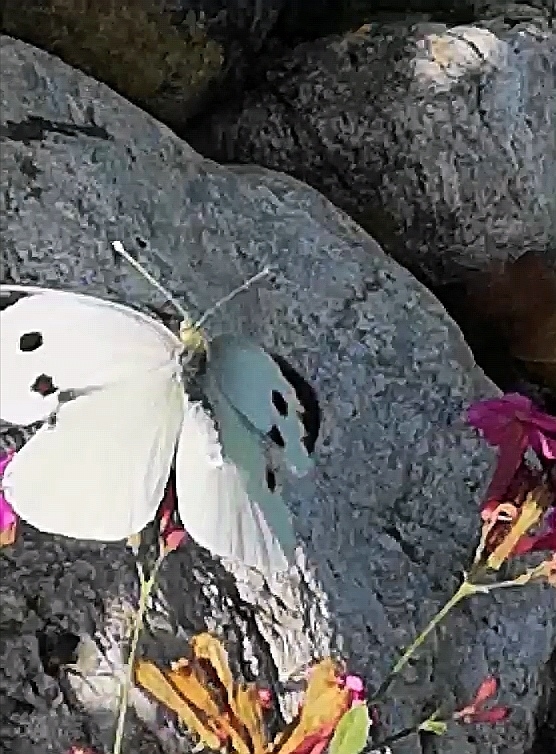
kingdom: Animalia
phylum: Arthropoda
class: Insecta
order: Lepidoptera
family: Pieridae
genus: Pieris
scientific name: Pieris brassicae
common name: Large white
